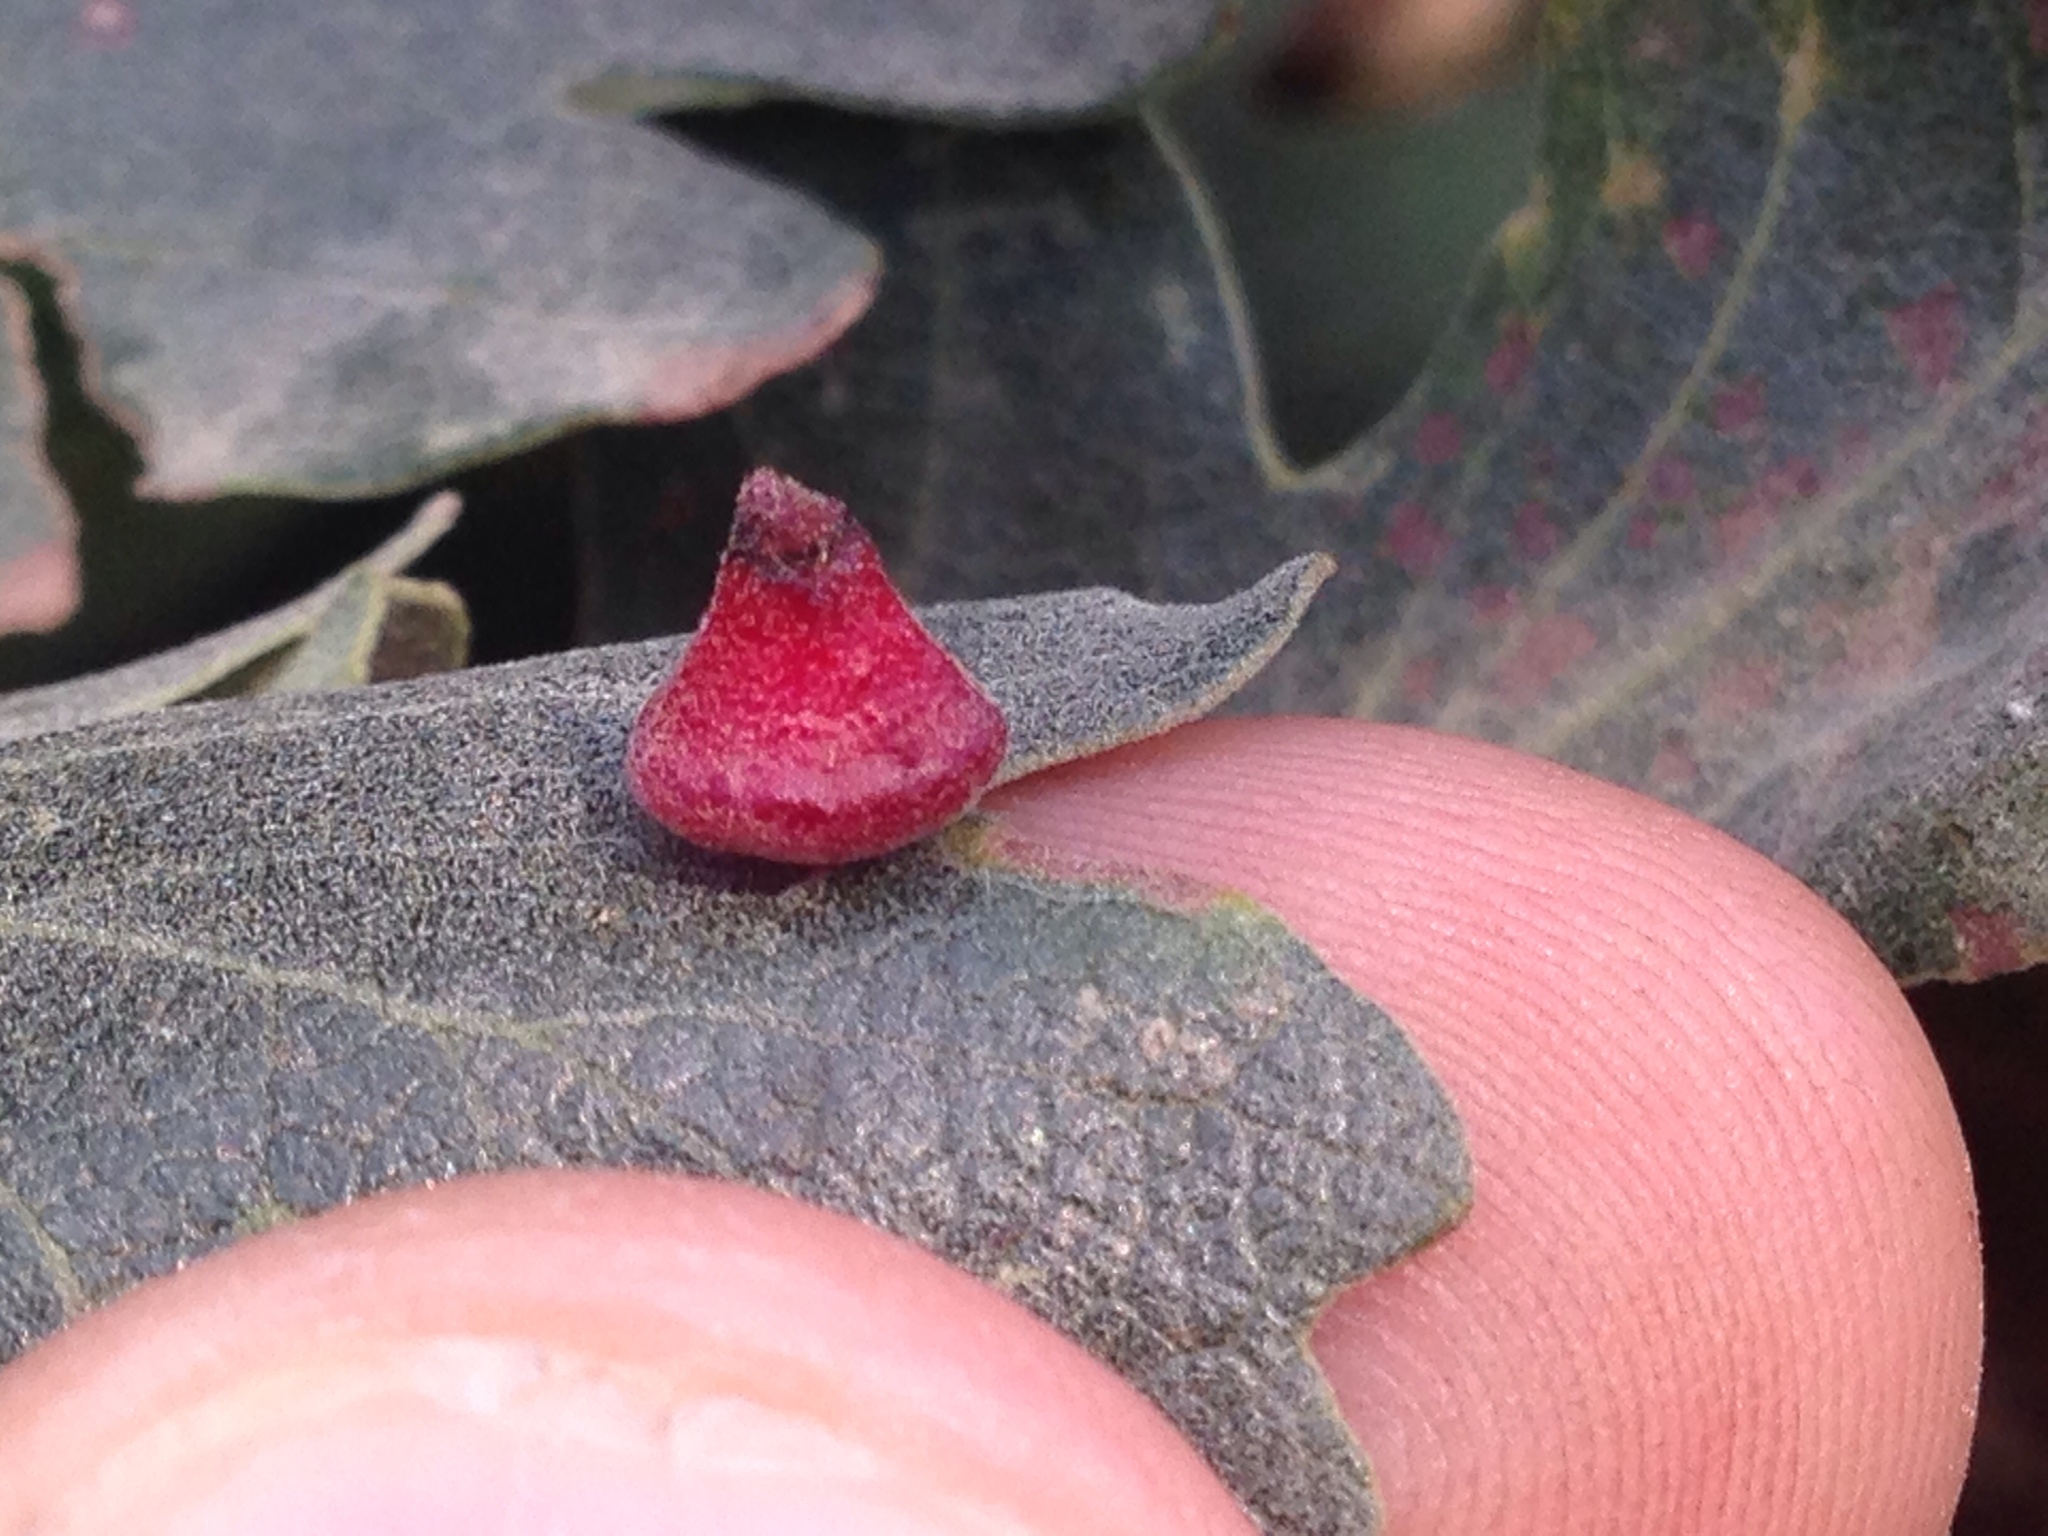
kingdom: Animalia
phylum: Arthropoda
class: Insecta
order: Hymenoptera
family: Cynipidae
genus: Andricus
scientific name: Andricus
